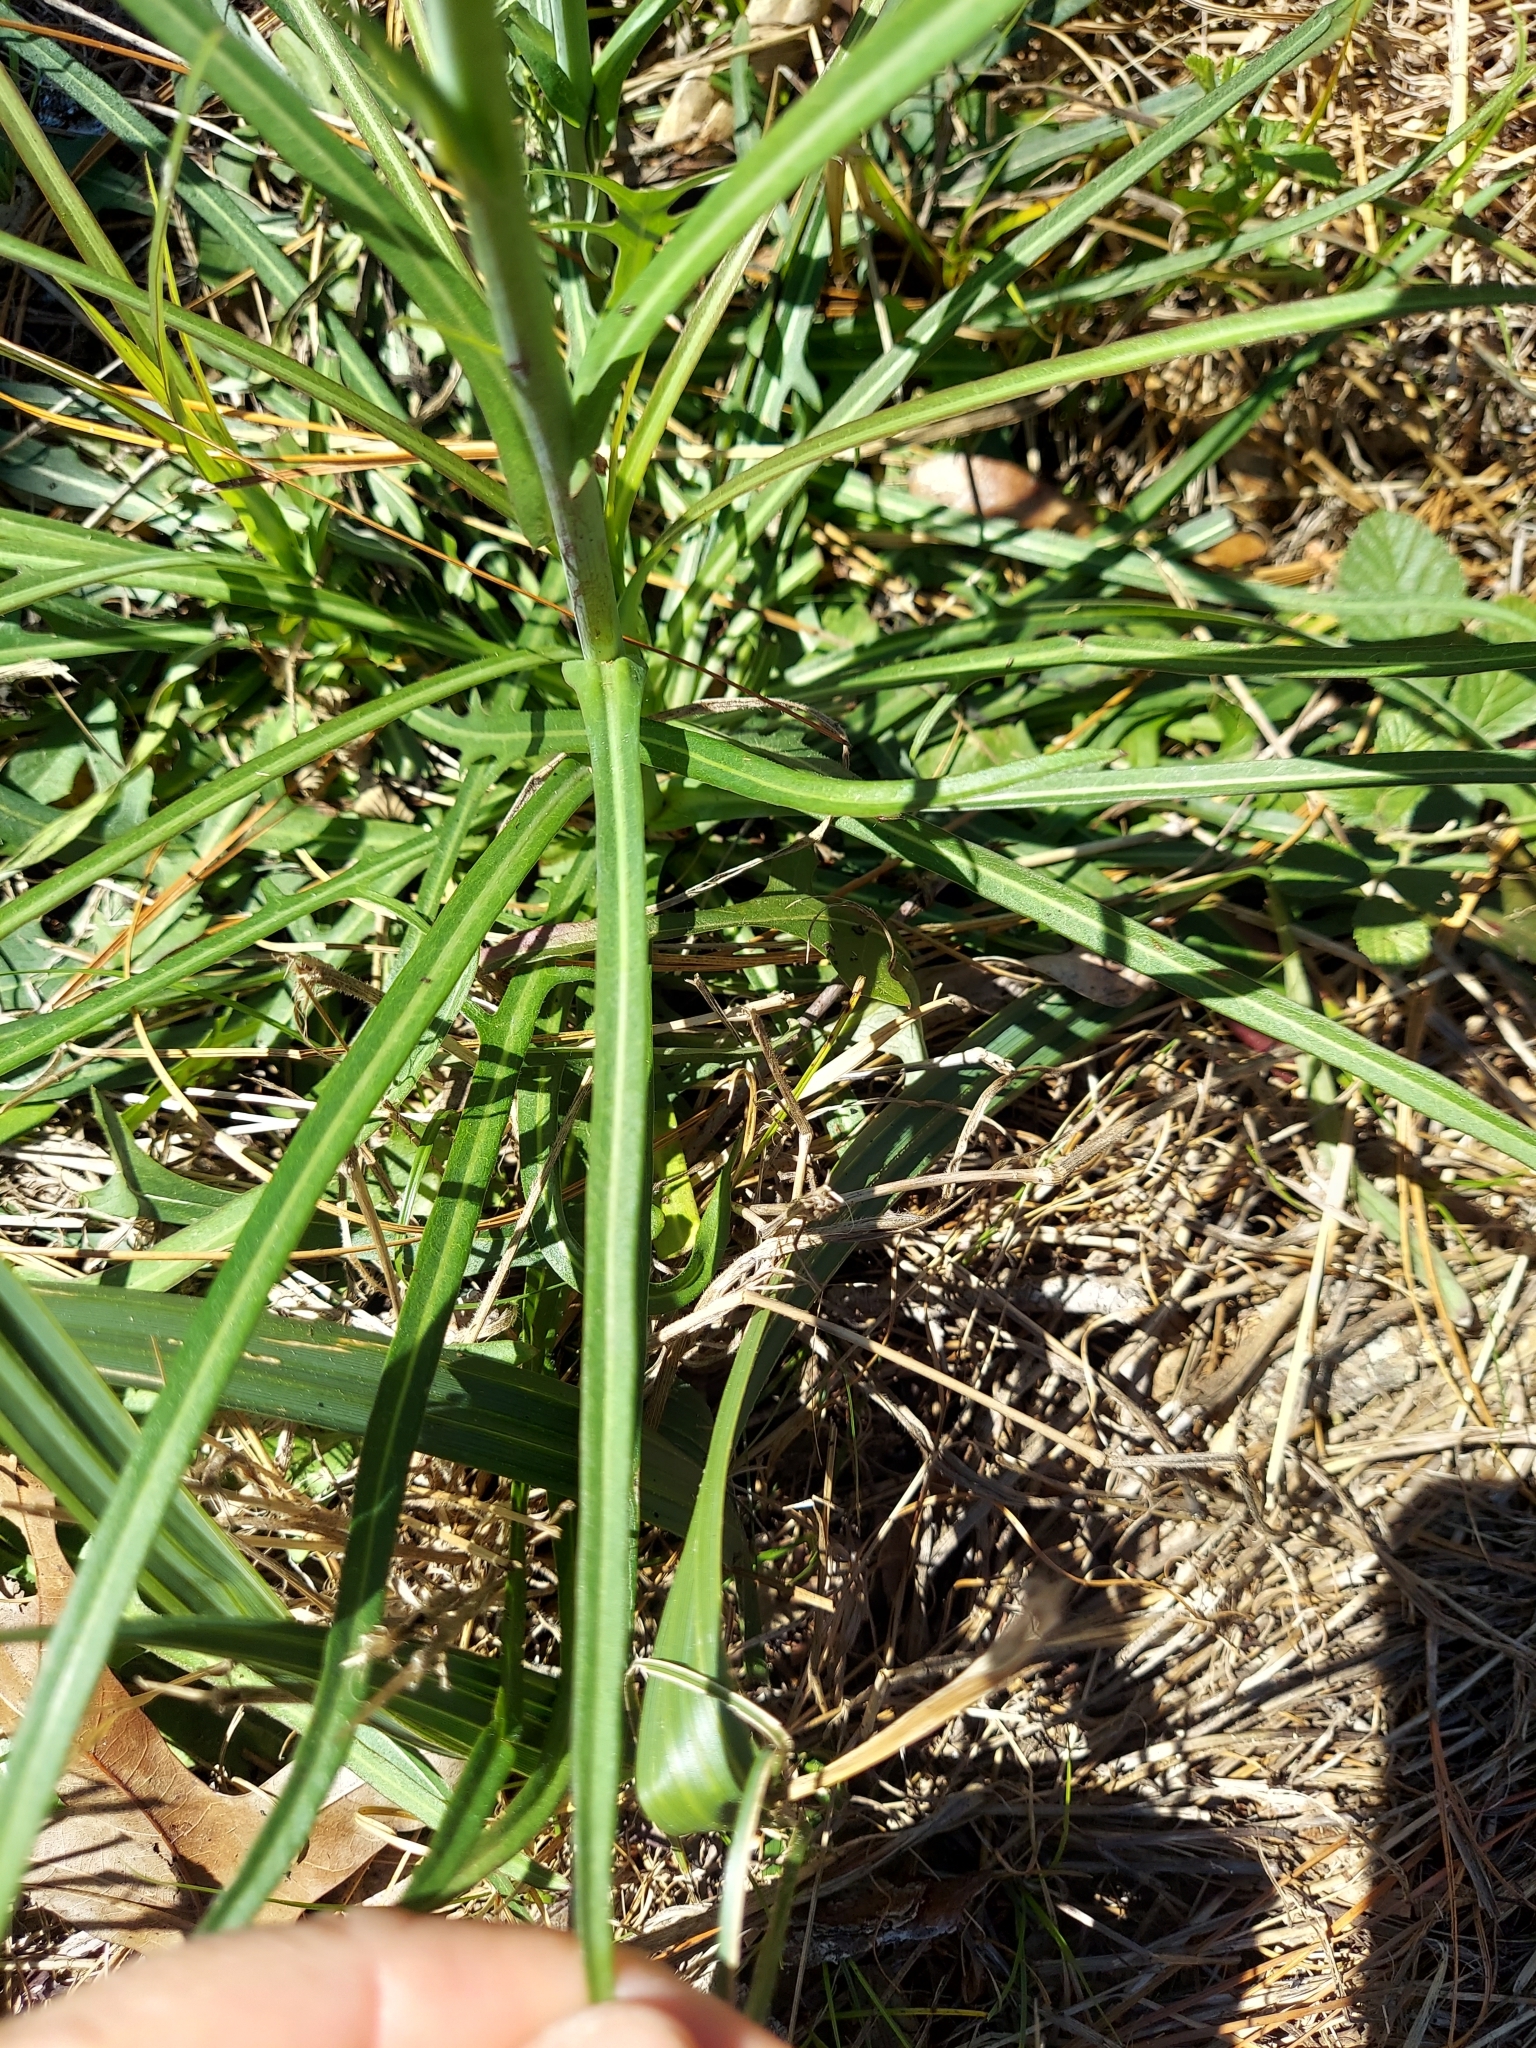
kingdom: Plantae
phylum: Tracheophyta
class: Magnoliopsida
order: Asterales
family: Asteraceae
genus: Lactuca
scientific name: Lactuca graminifolia
